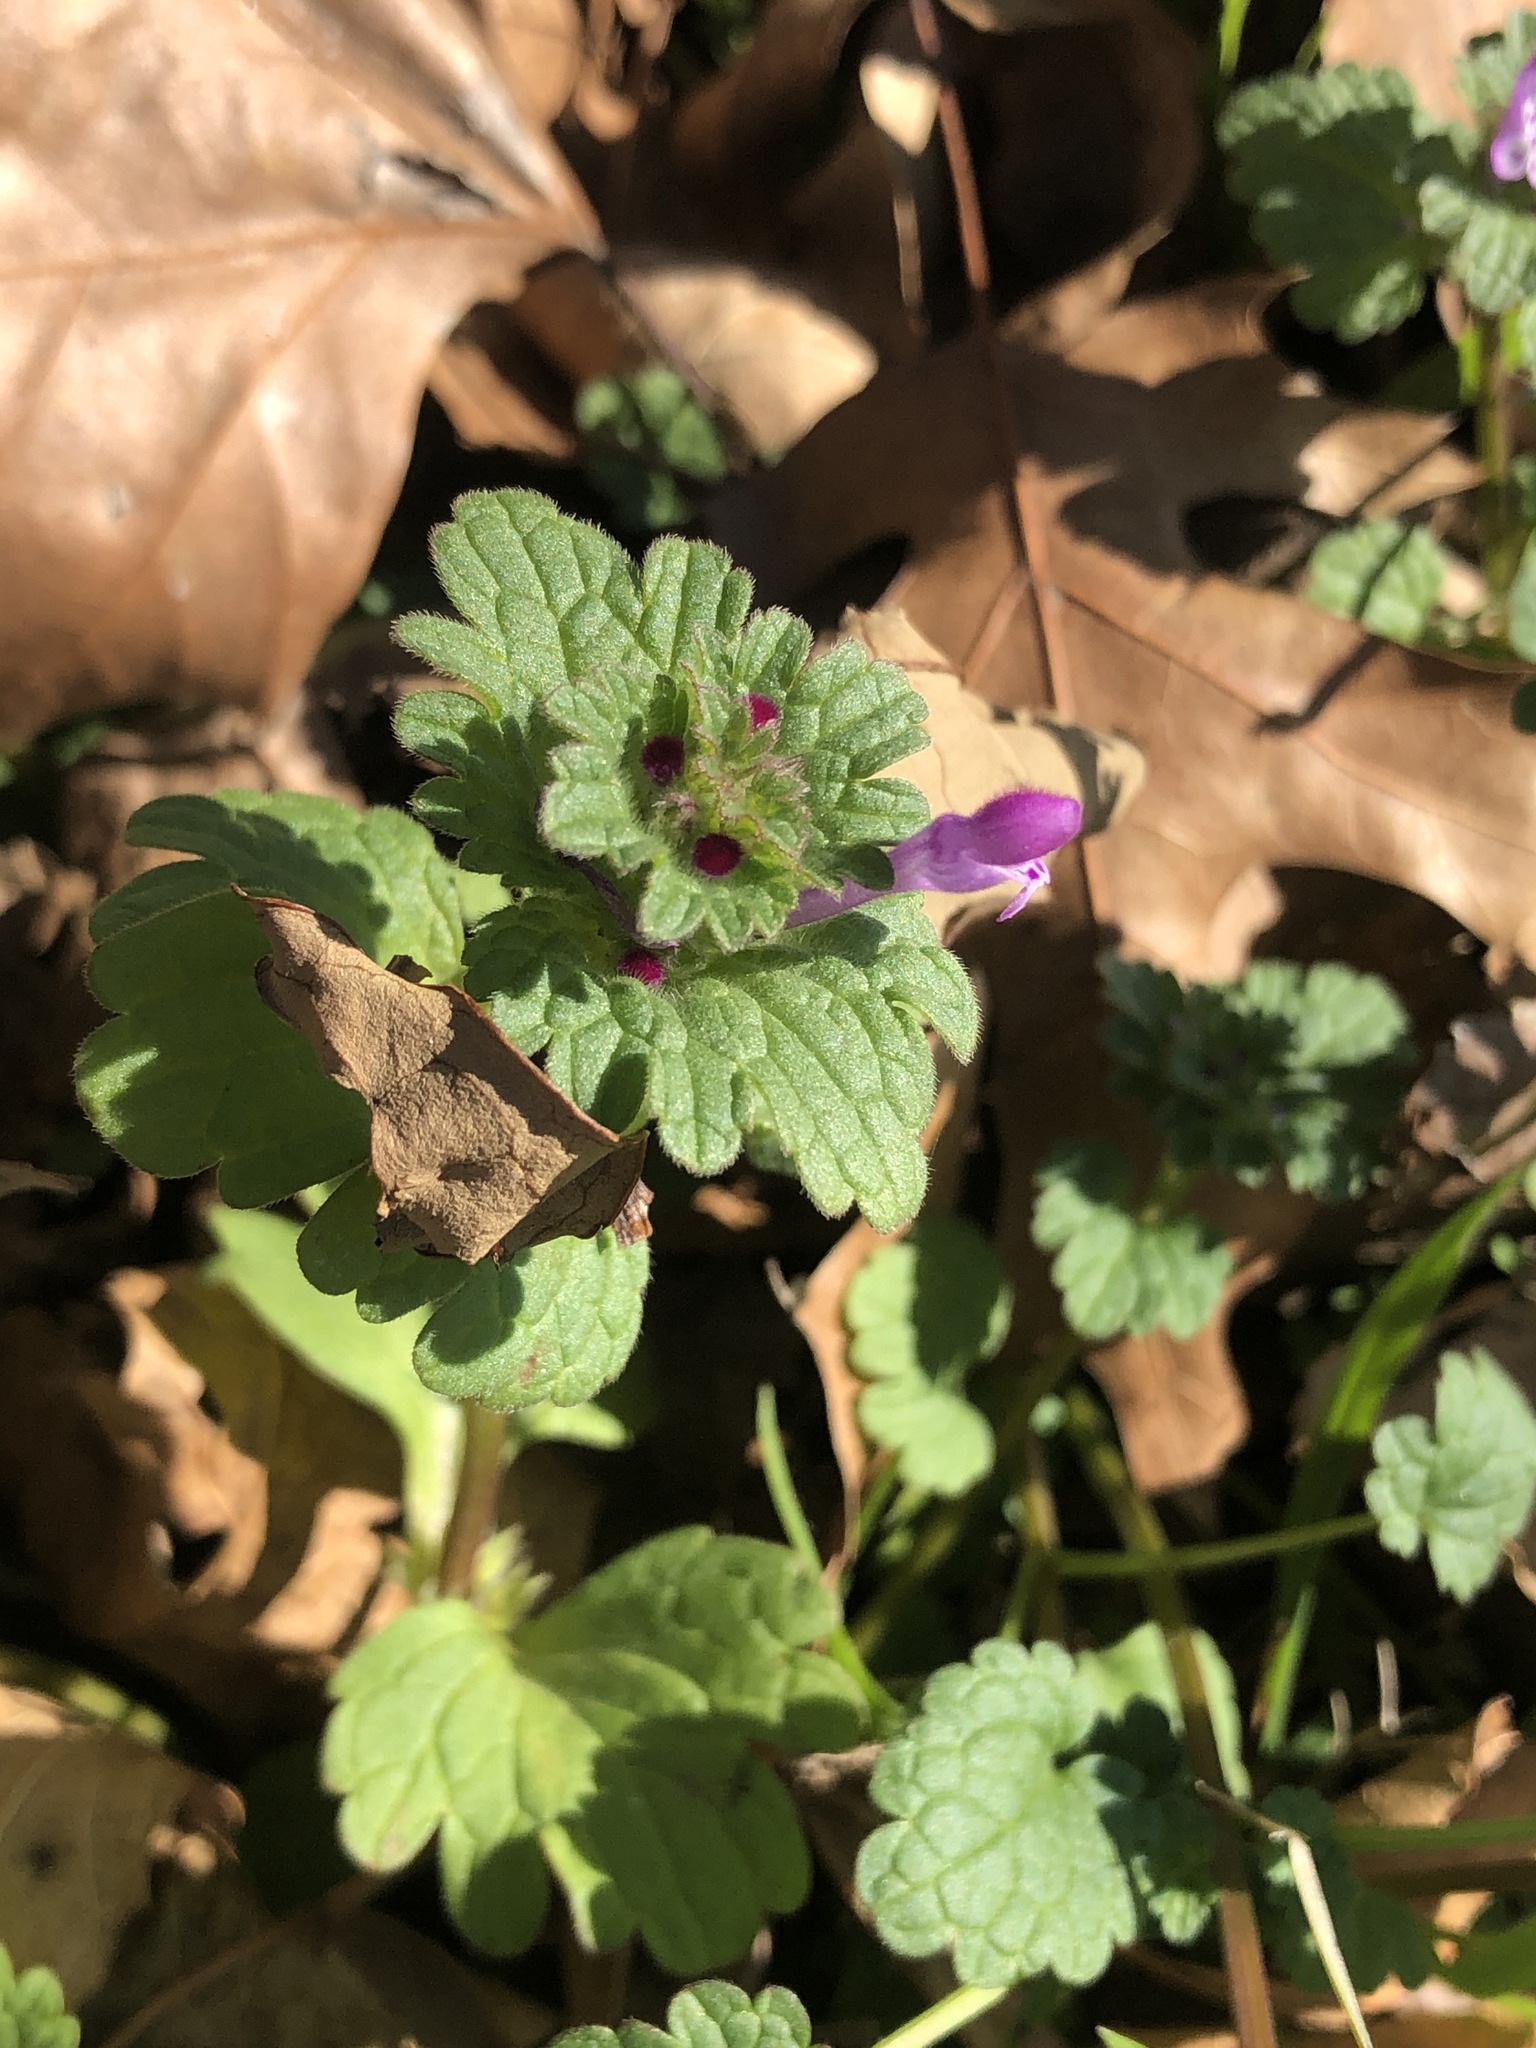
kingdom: Plantae
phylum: Tracheophyta
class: Magnoliopsida
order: Lamiales
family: Lamiaceae
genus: Lamium
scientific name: Lamium amplexicaule
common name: Henbit dead-nettle
